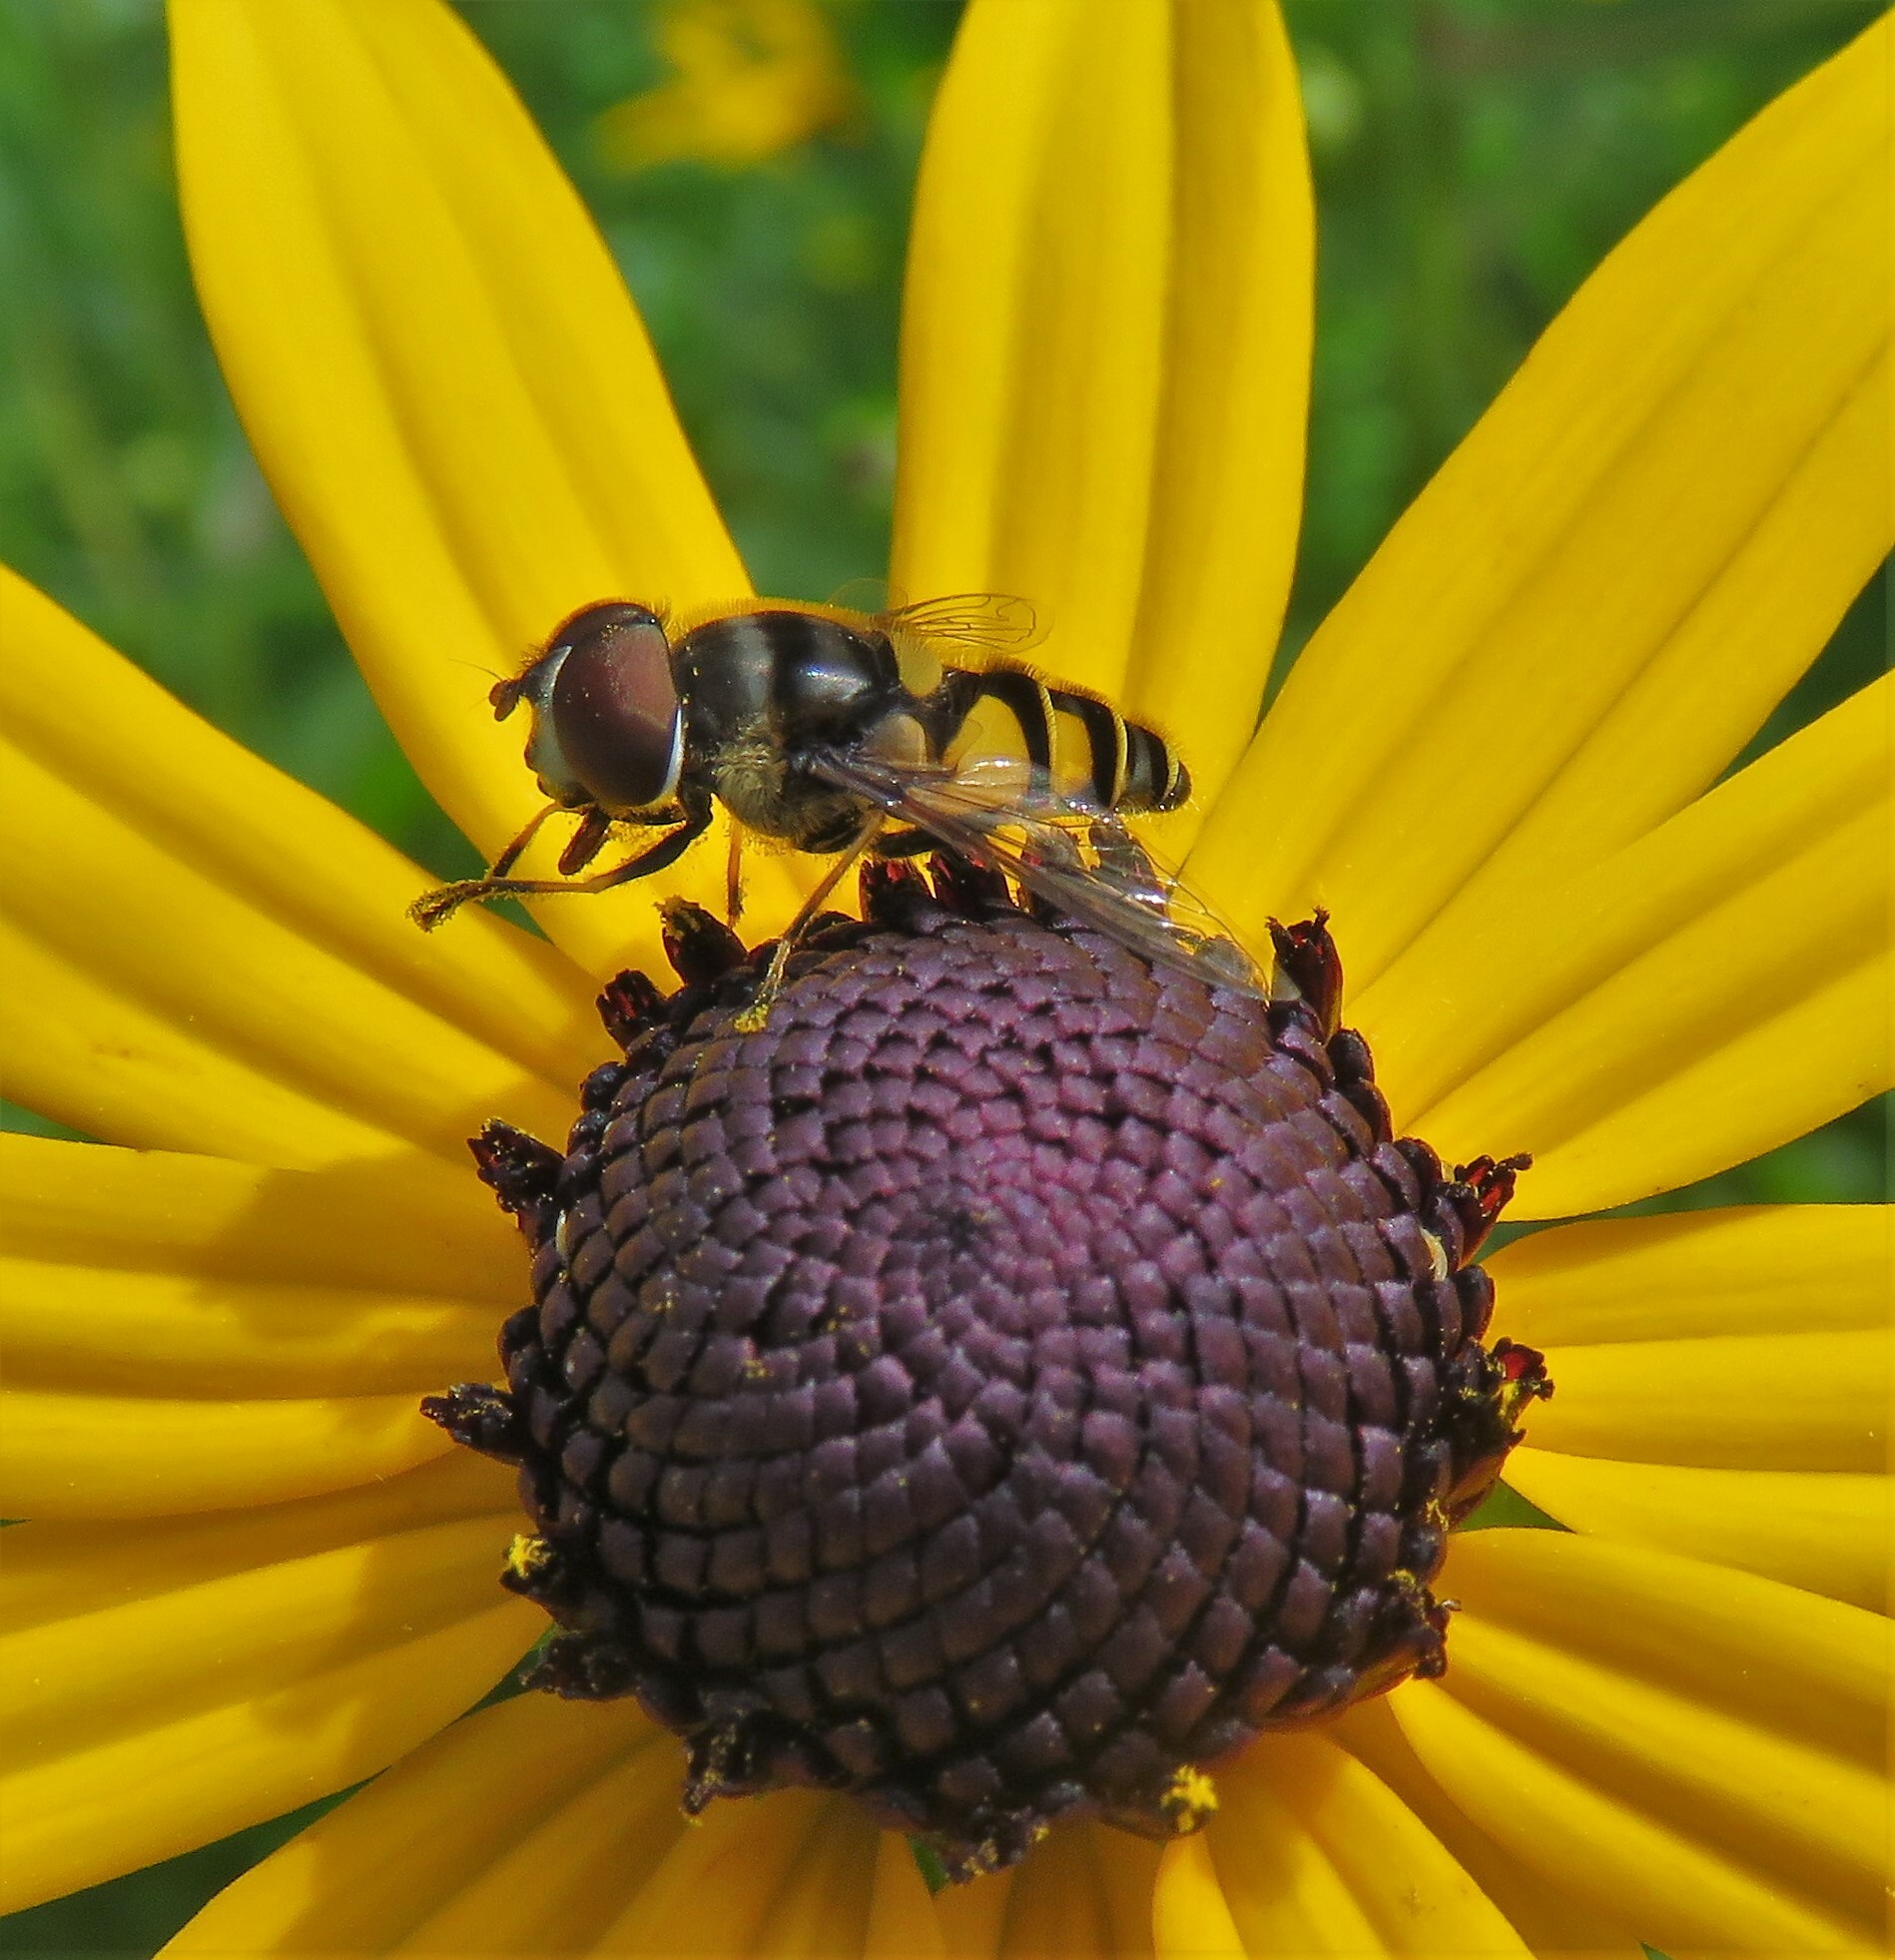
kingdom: Animalia
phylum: Arthropoda
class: Insecta
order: Diptera
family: Syrphidae
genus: Eristalis
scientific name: Eristalis transversa
